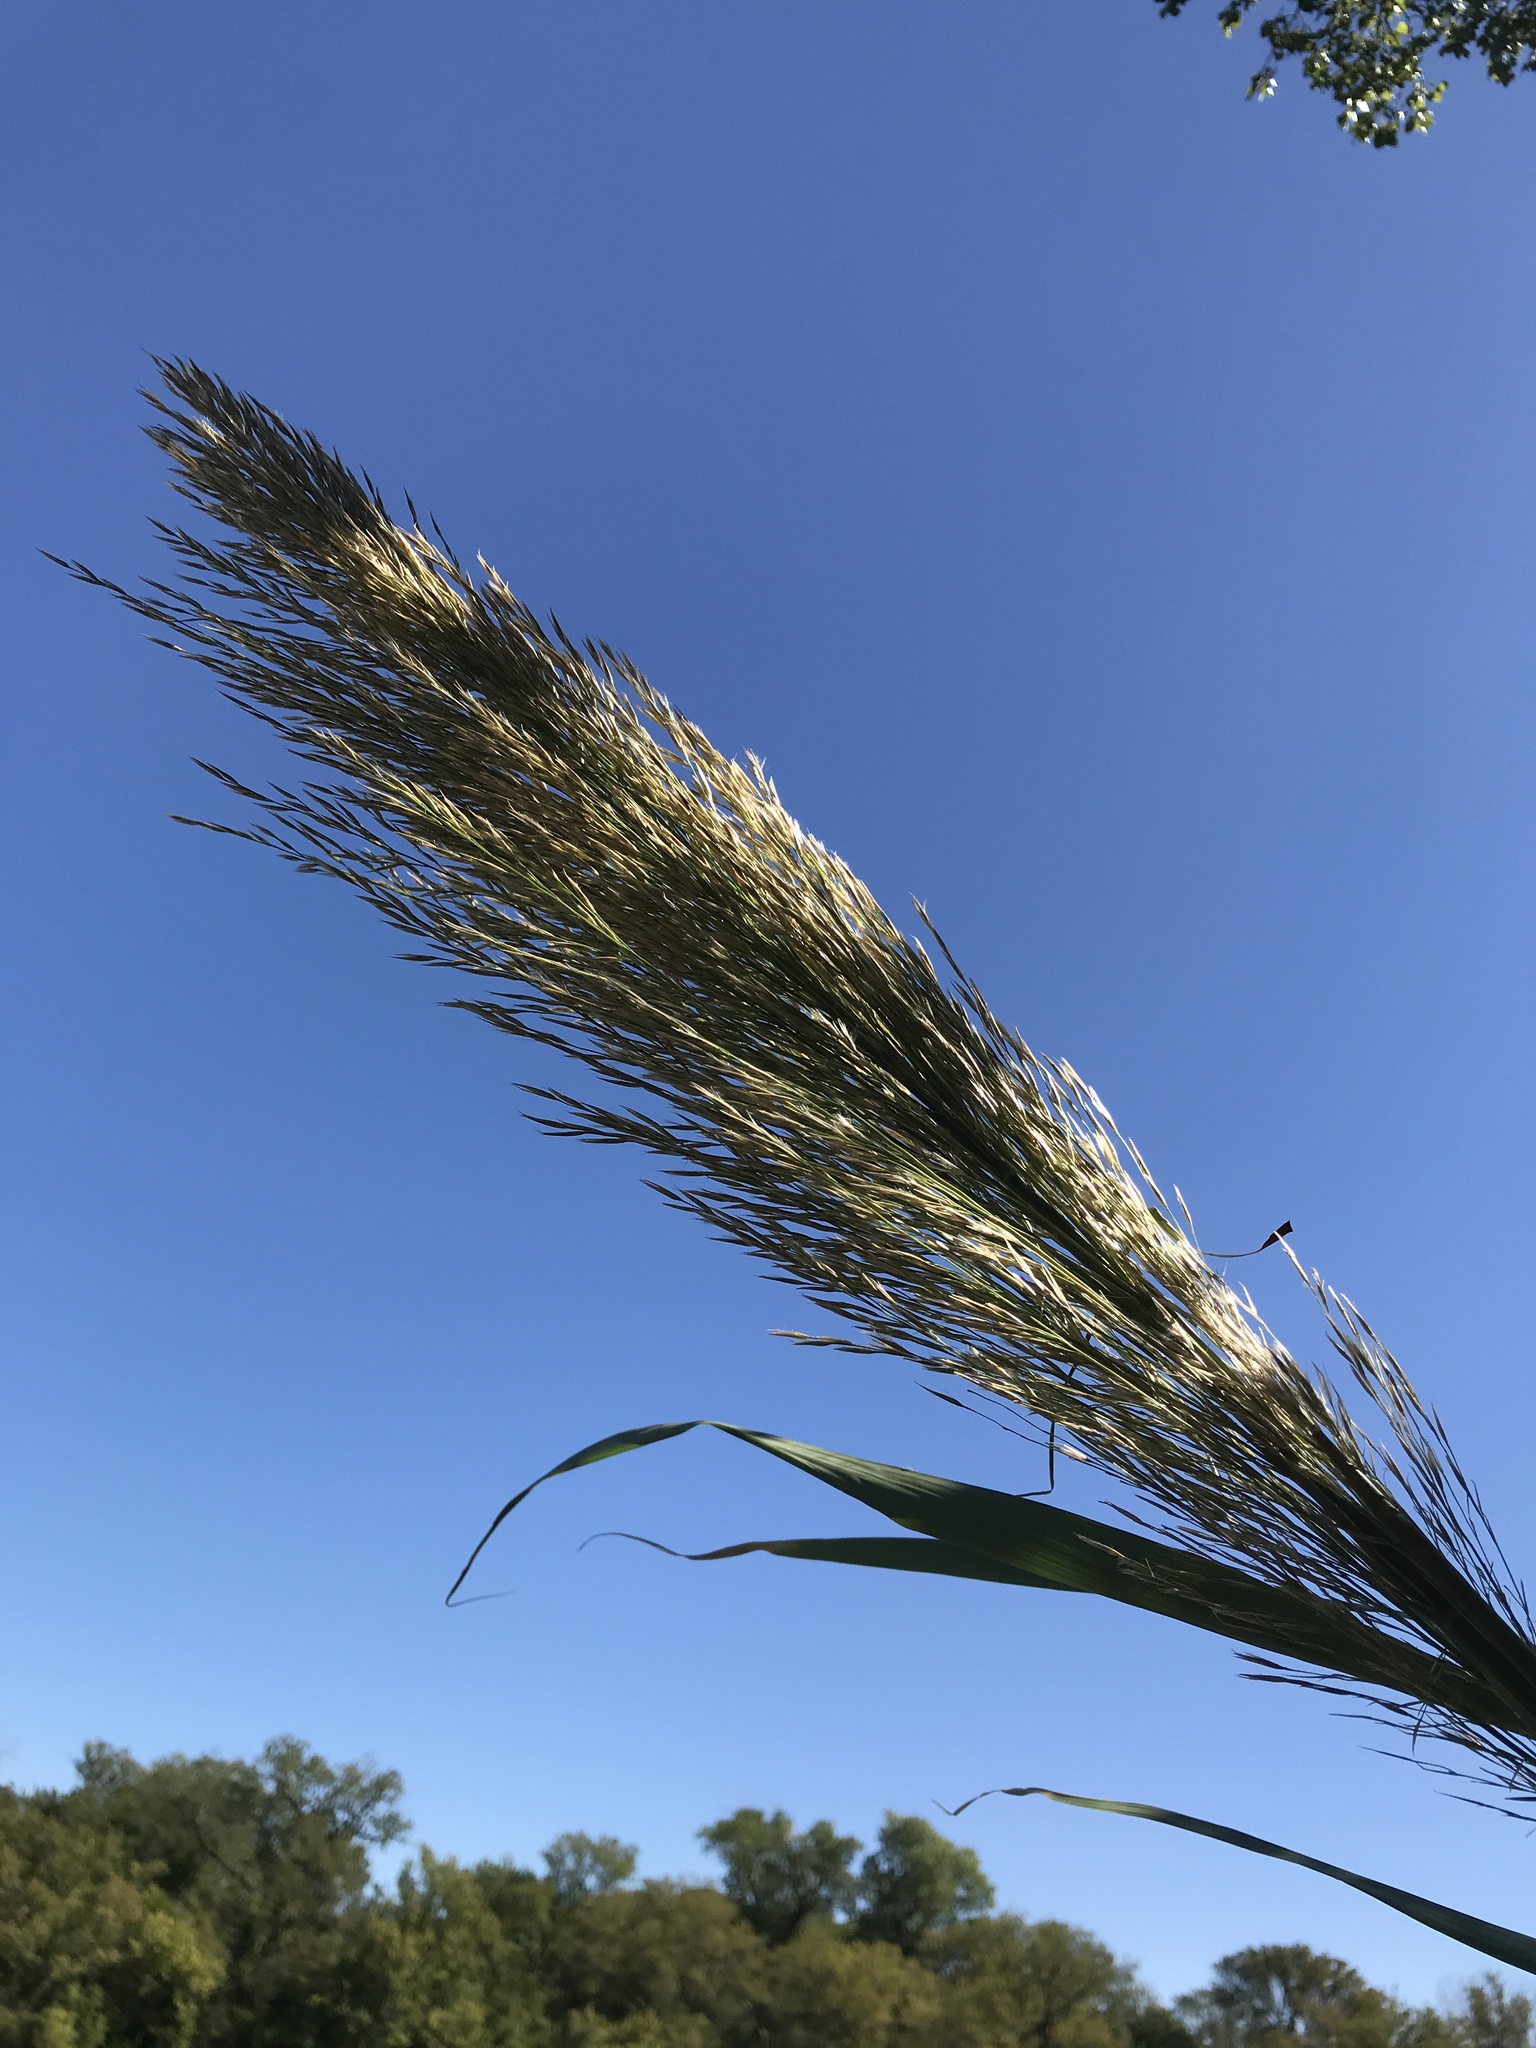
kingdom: Plantae
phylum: Tracheophyta
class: Liliopsida
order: Poales
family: Poaceae
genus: Arundo
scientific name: Arundo donax
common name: Giant reed
